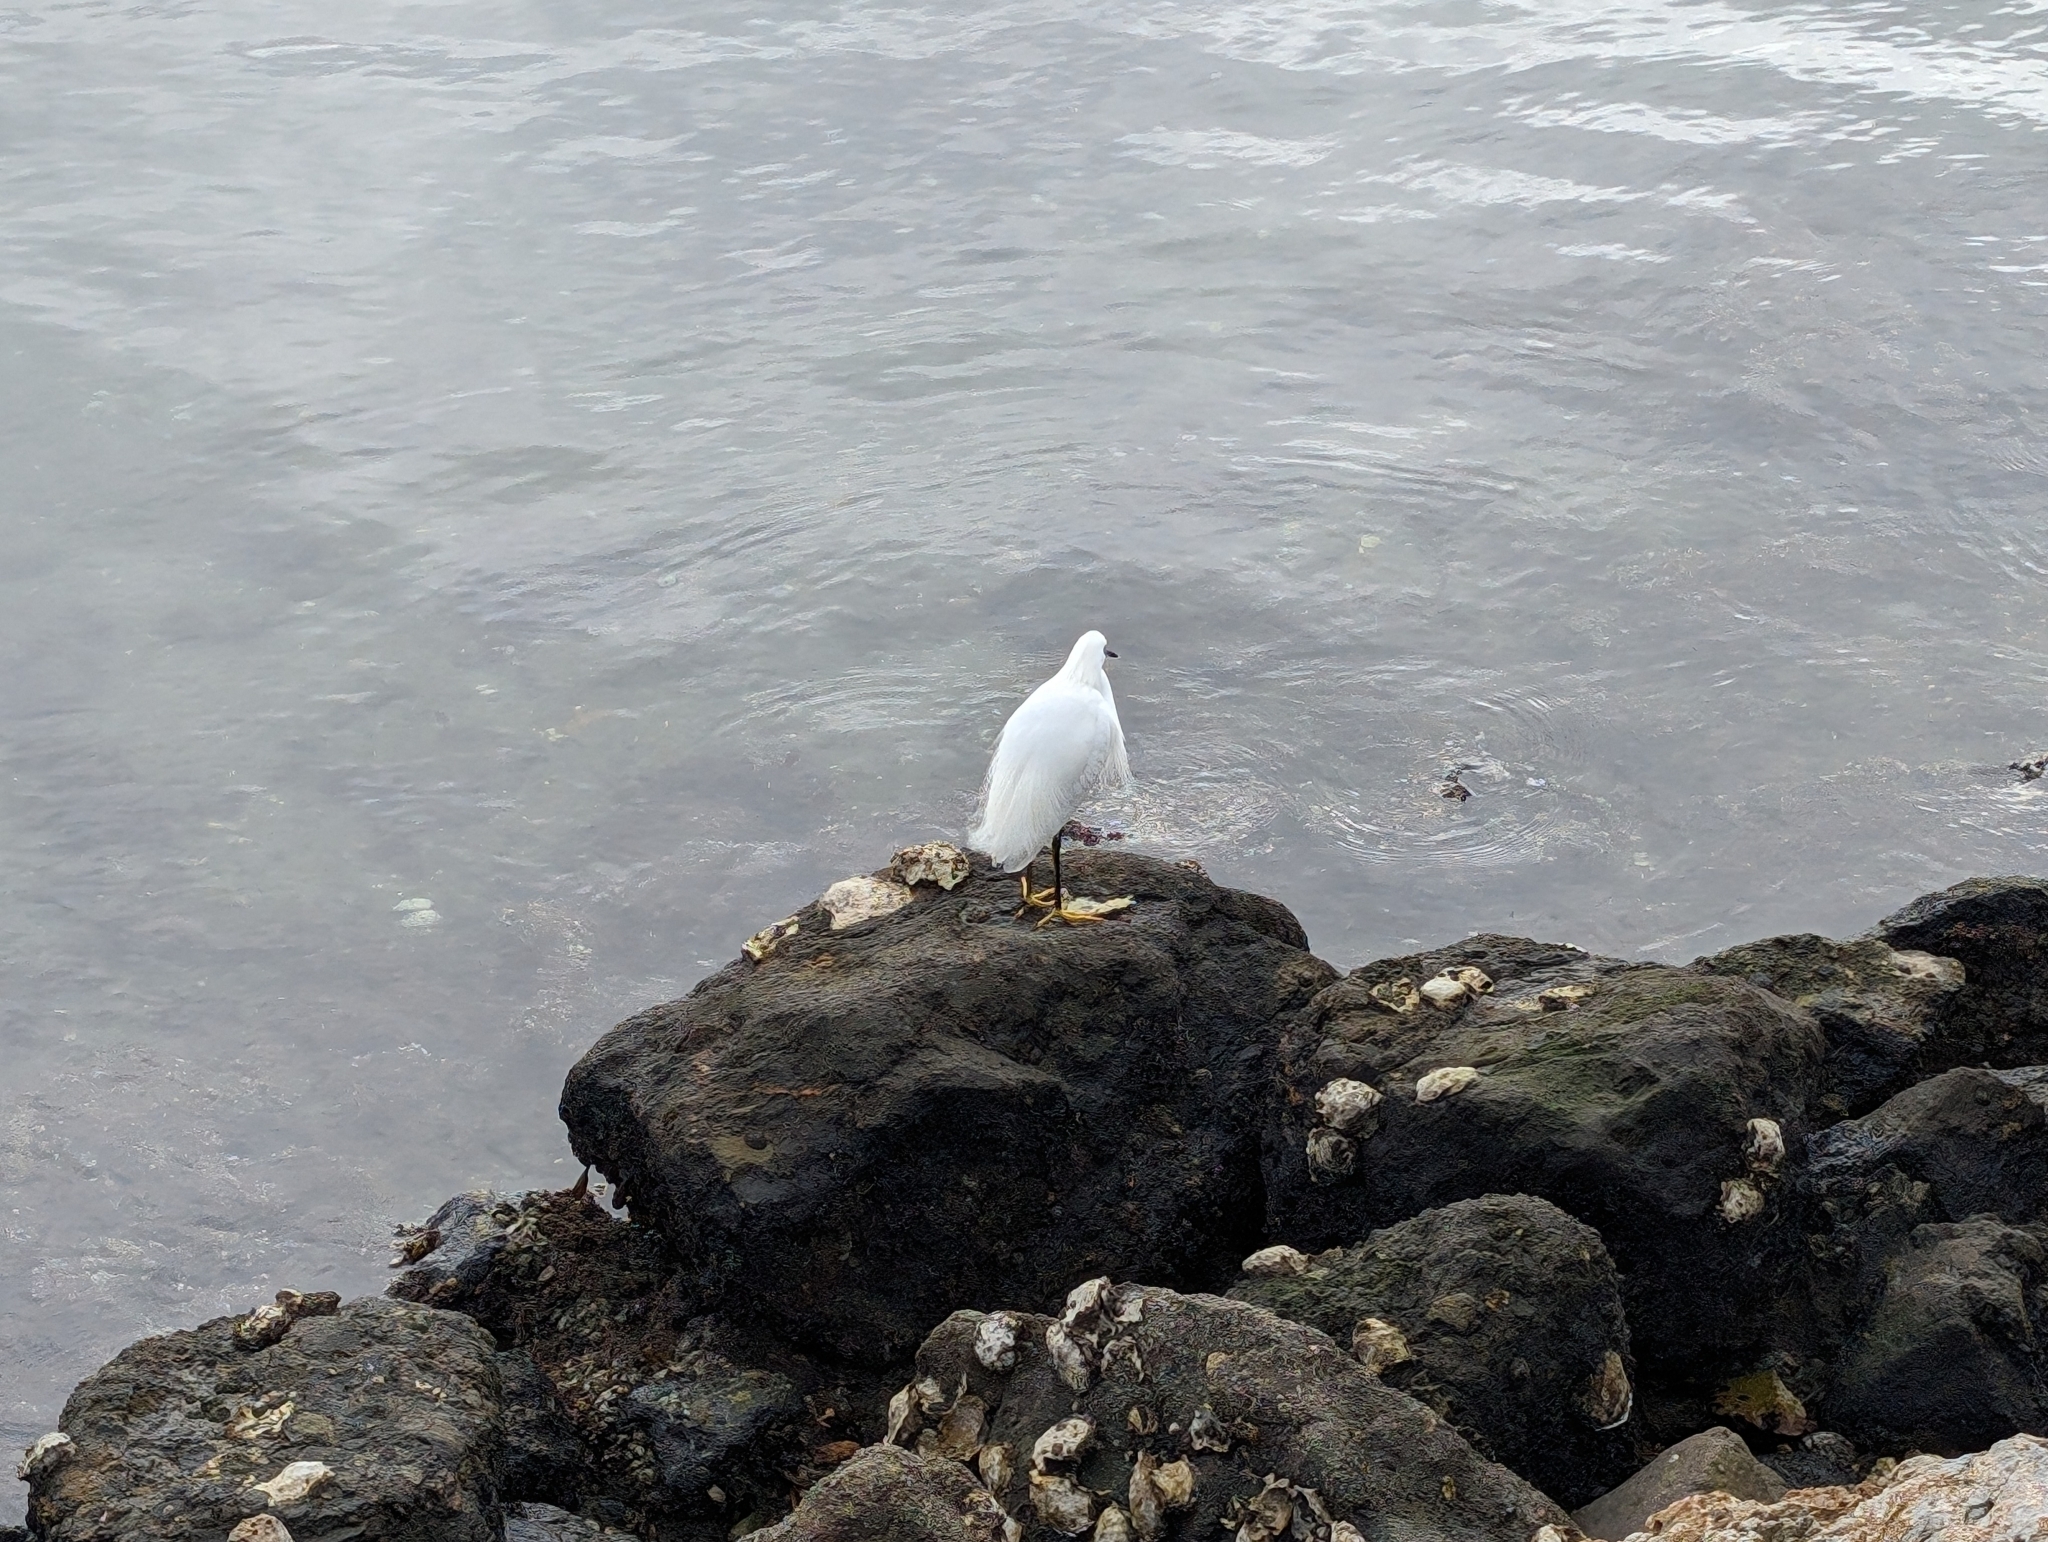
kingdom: Animalia
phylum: Chordata
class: Aves
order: Pelecaniformes
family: Ardeidae
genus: Egretta
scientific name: Egretta thula
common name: Snowy egret
